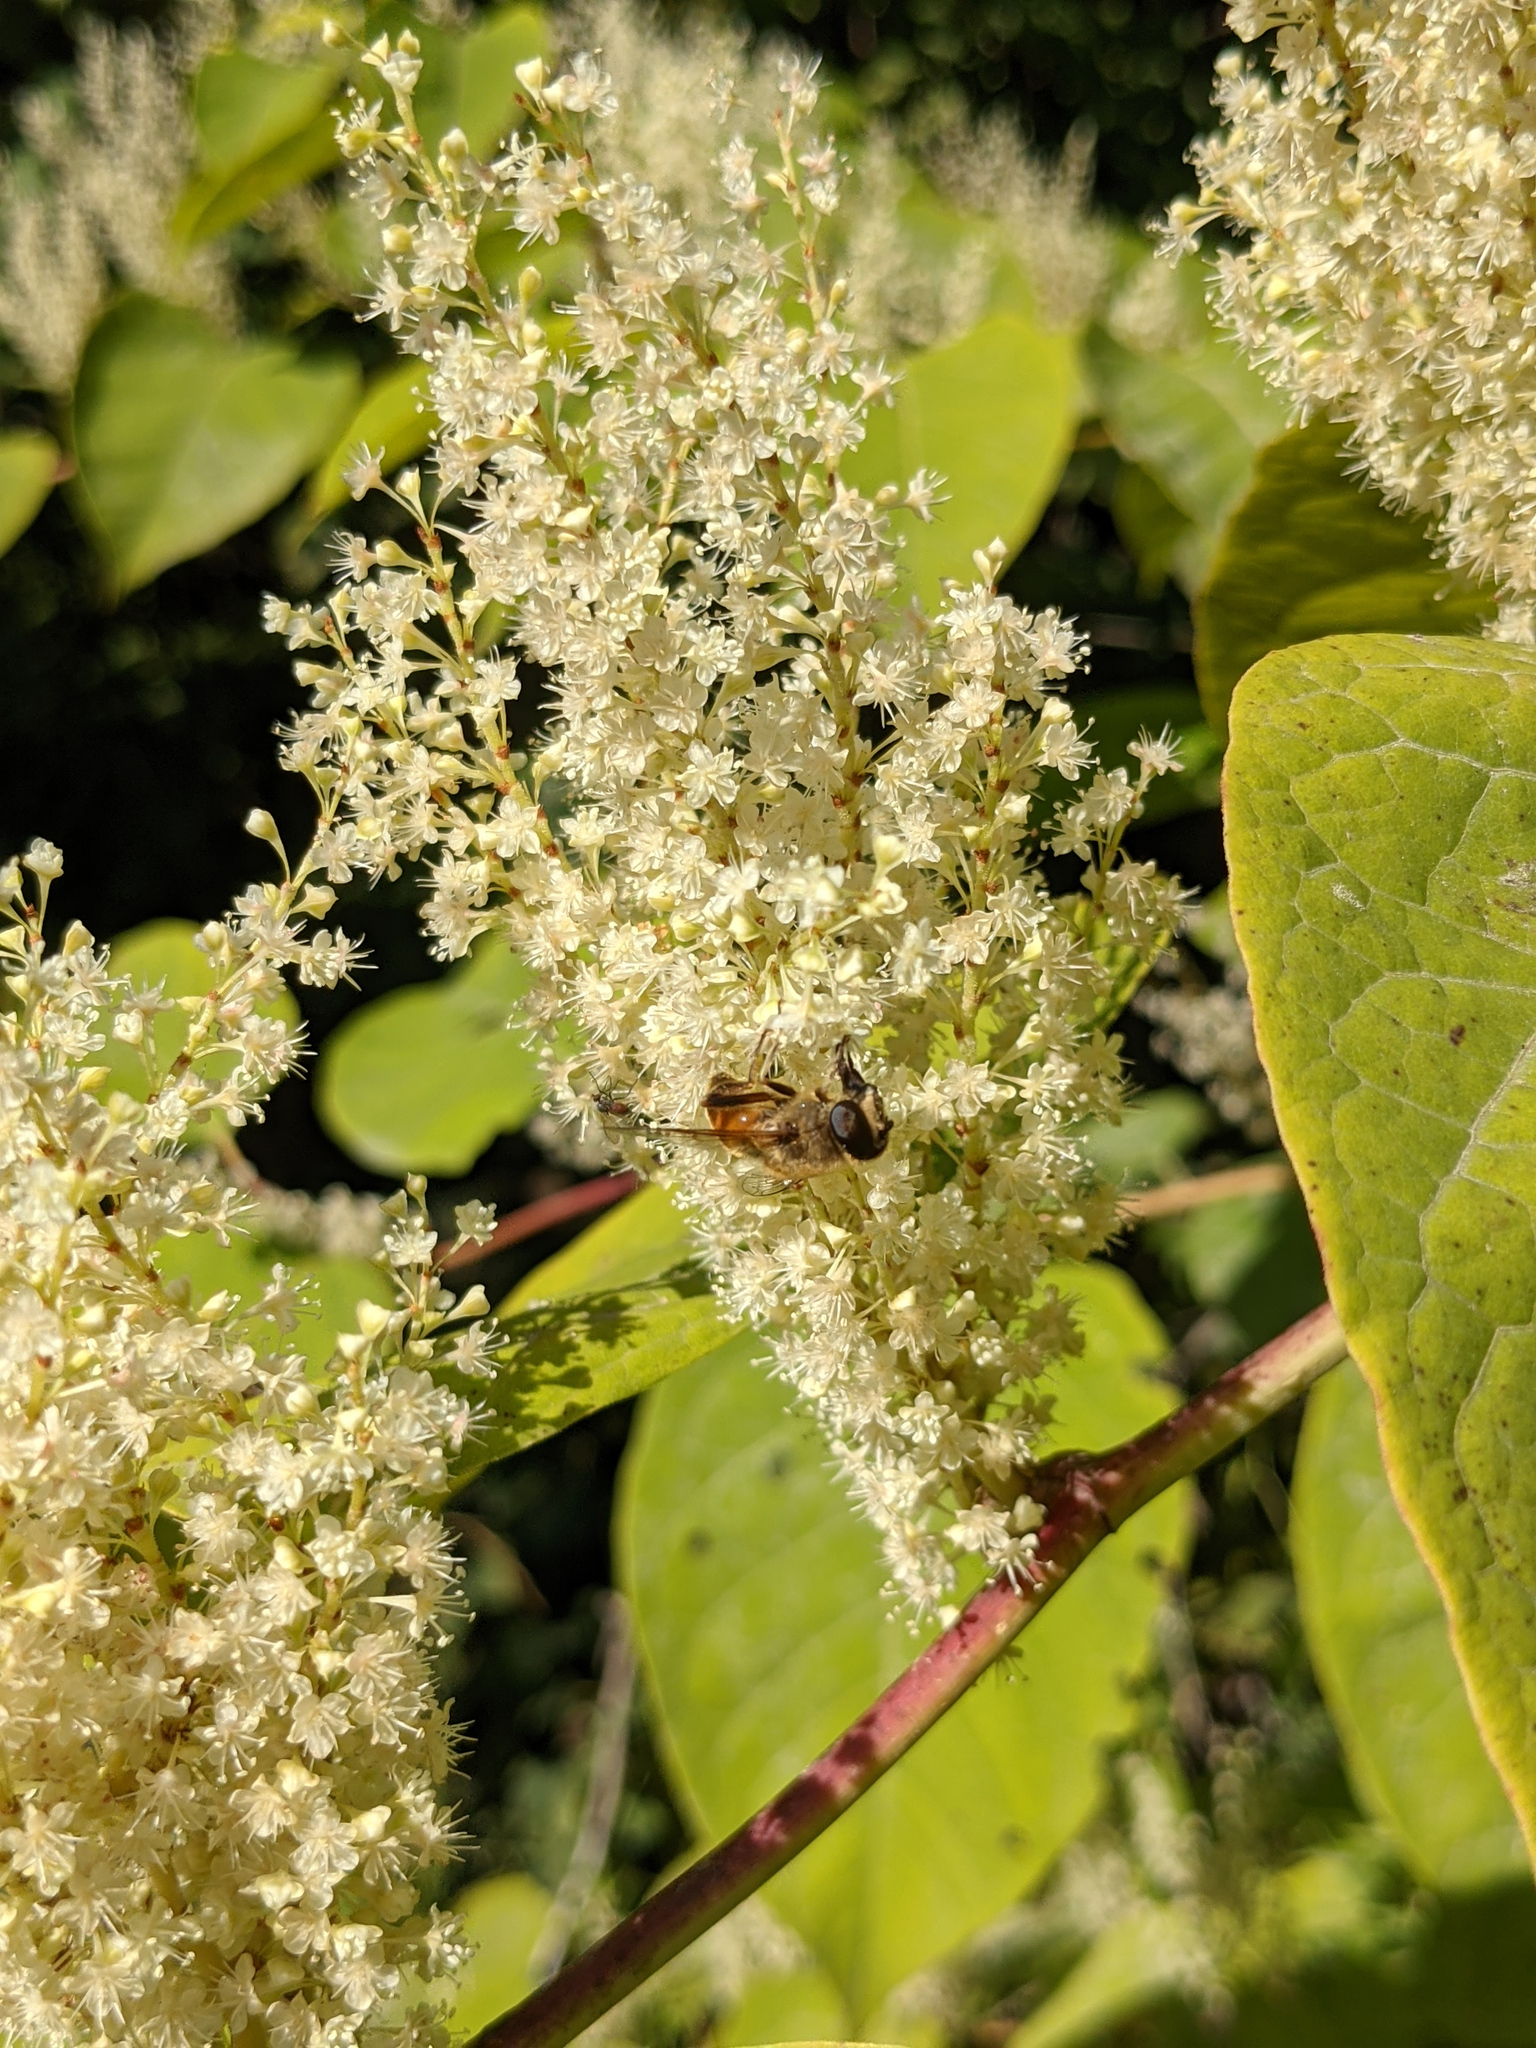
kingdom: Animalia
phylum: Arthropoda
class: Insecta
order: Diptera
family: Syrphidae
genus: Eristalis
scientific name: Eristalis tenax
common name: Drone fly
